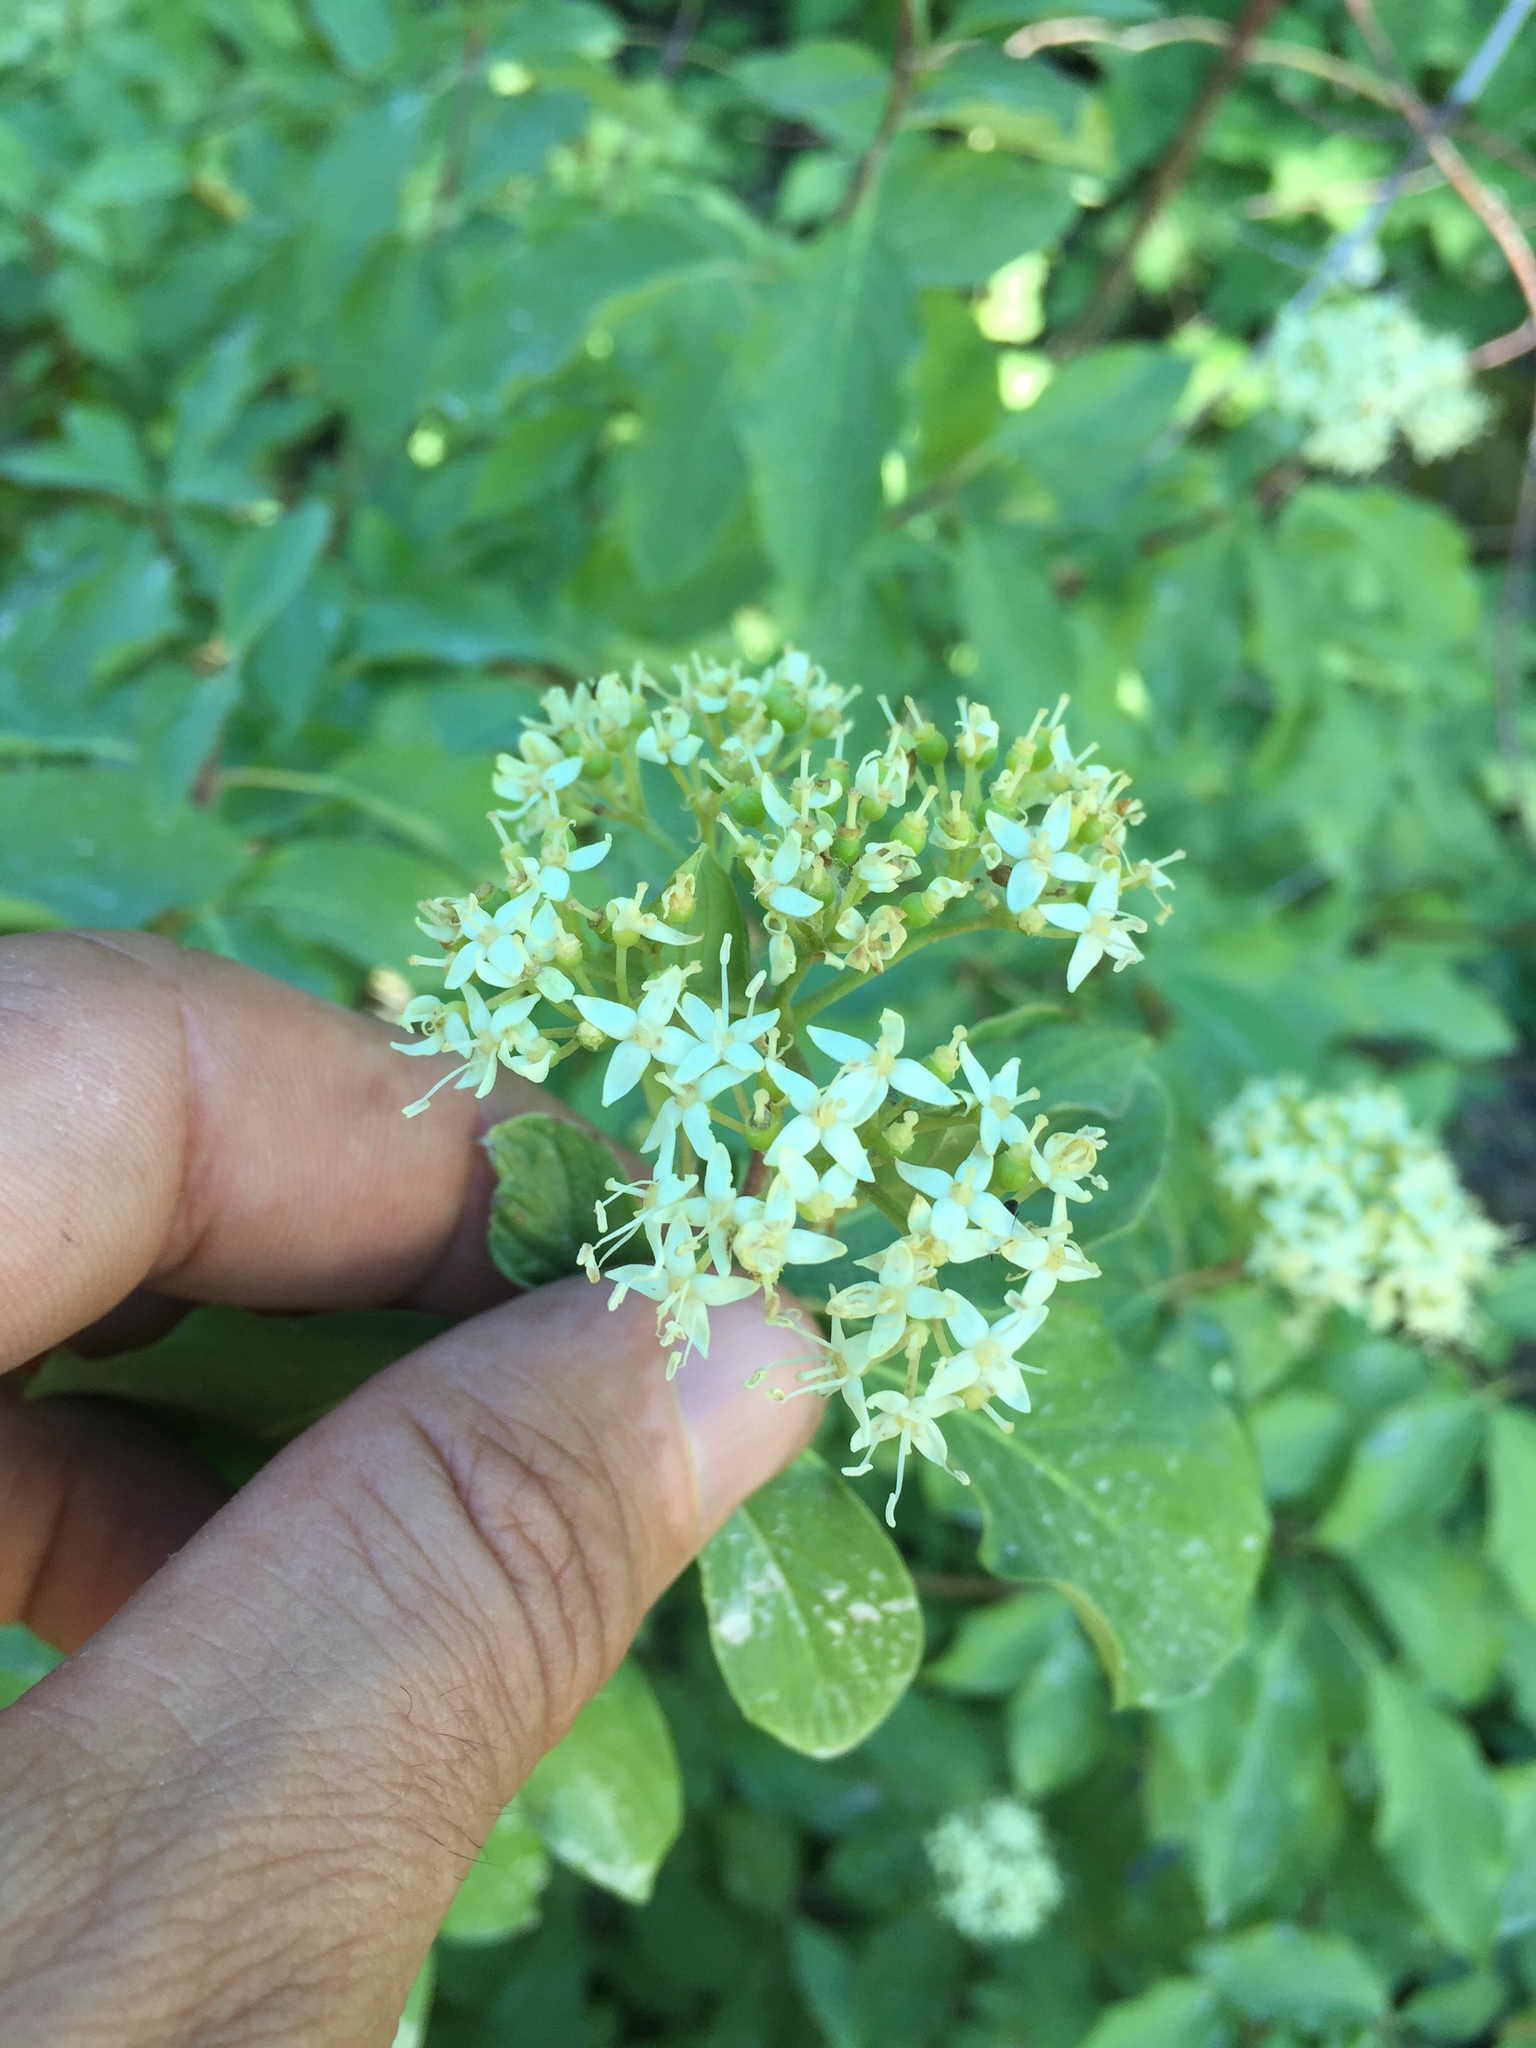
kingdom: Plantae
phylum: Tracheophyta
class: Magnoliopsida
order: Cornales
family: Cornaceae
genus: Cornus
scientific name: Cornus sericea
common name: Red-osier dogwood
